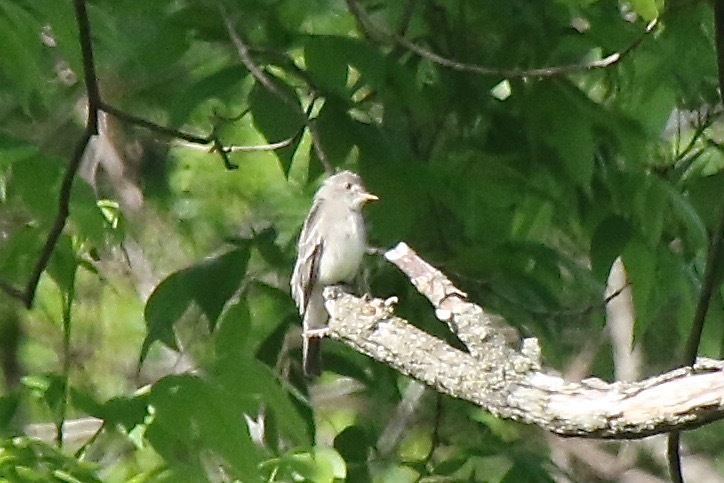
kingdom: Animalia
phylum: Chordata
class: Aves
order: Passeriformes
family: Tyrannidae
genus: Contopus
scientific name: Contopus virens
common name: Eastern wood-pewee
